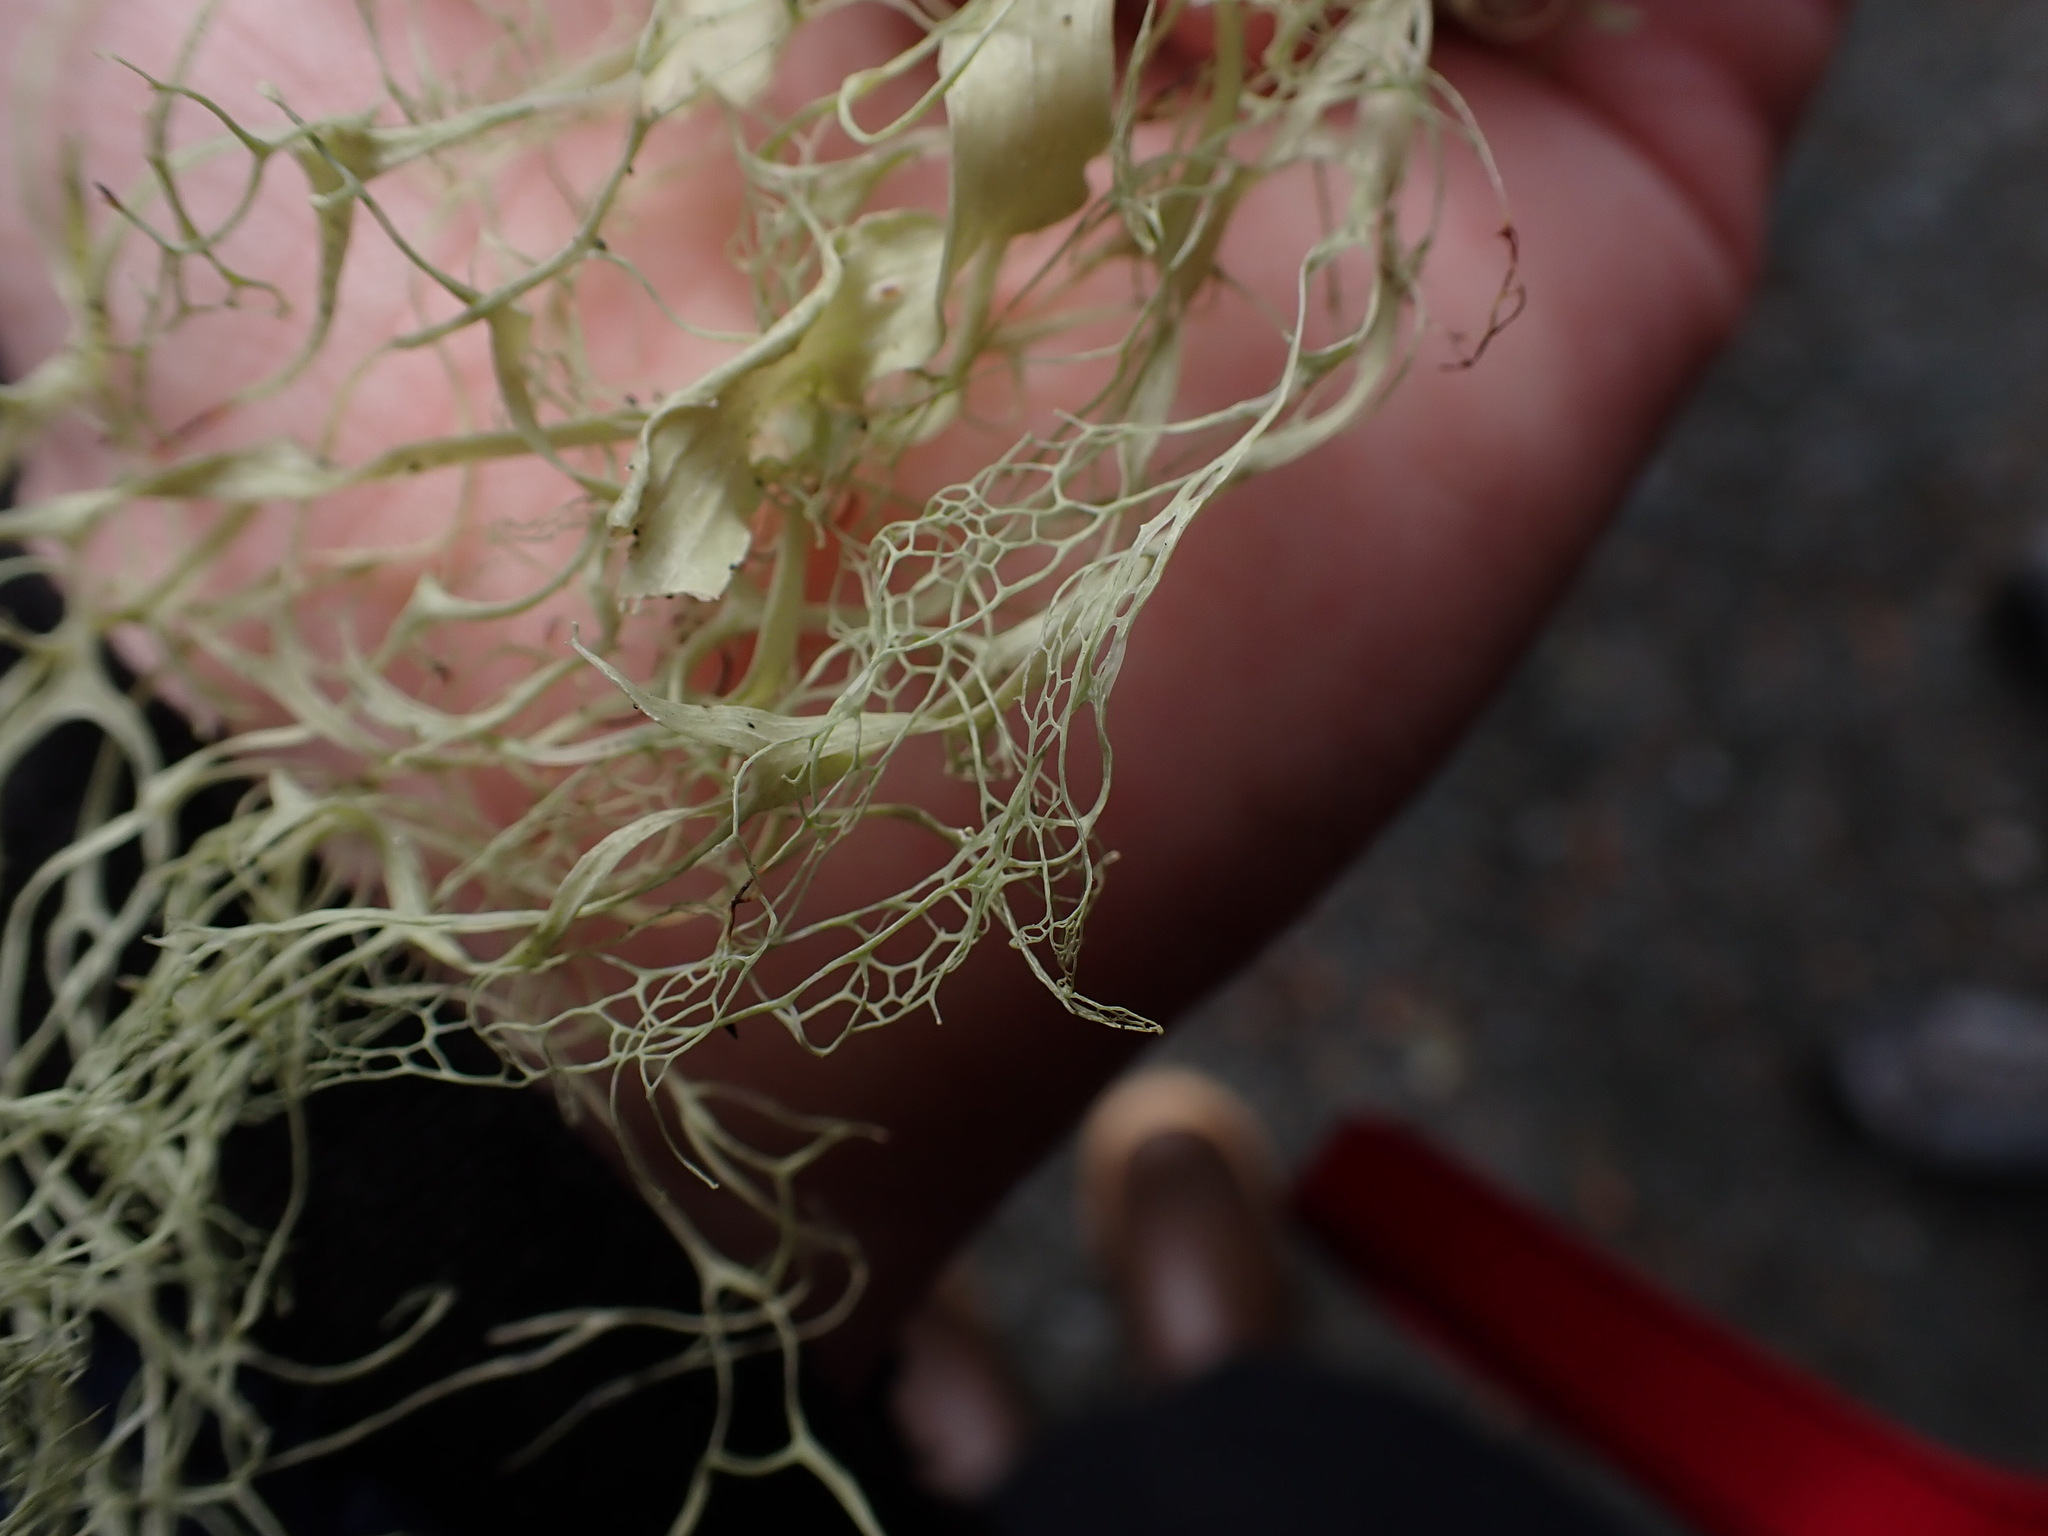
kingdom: Fungi
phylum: Ascomycota
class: Lecanoromycetes
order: Lecanorales
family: Ramalinaceae
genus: Ramalina
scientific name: Ramalina menziesii
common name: Lace lichen
